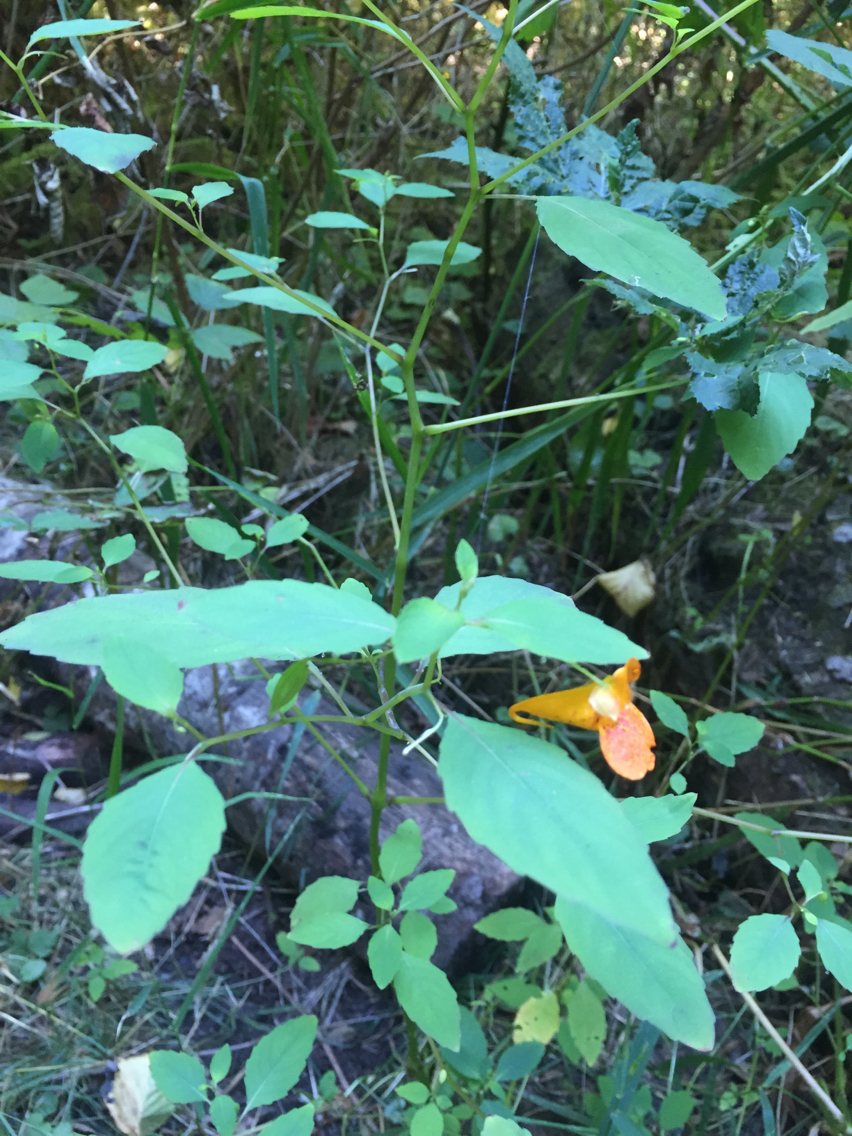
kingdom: Plantae
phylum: Tracheophyta
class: Magnoliopsida
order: Ericales
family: Balsaminaceae
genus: Impatiens
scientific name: Impatiens capensis
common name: Orange balsam
